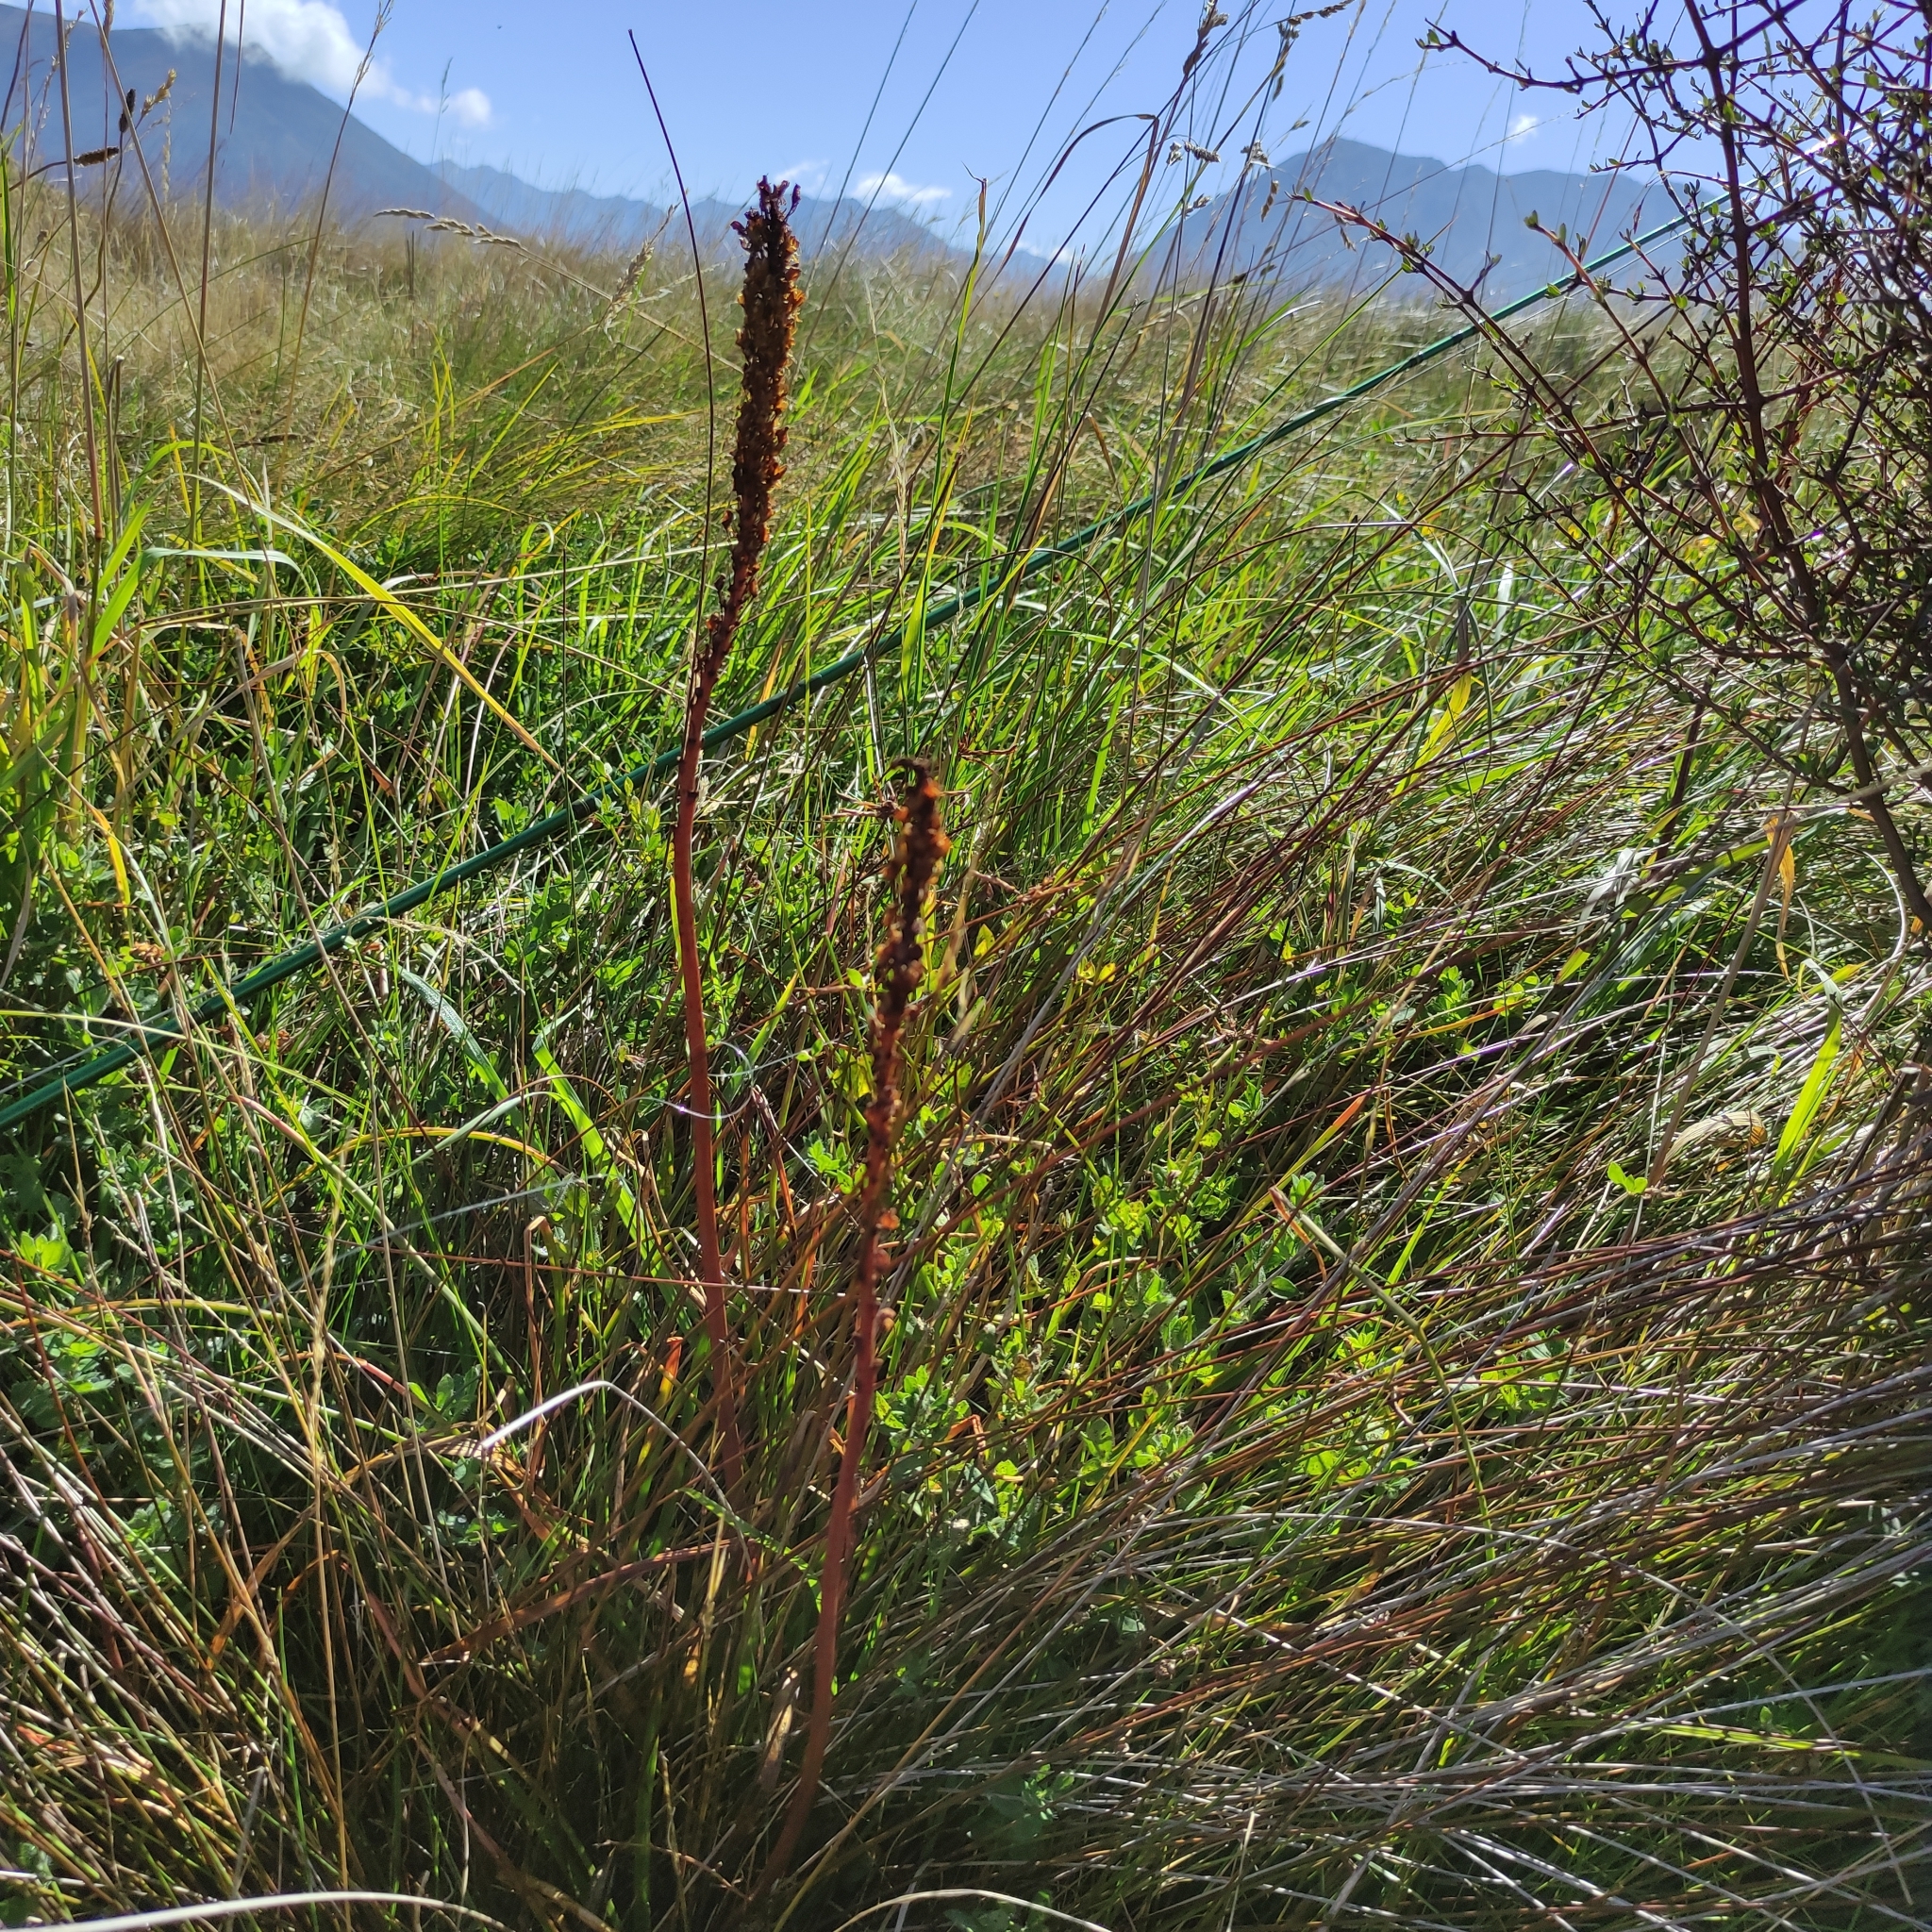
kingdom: Plantae
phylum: Tracheophyta
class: Liliopsida
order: Asparagales
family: Asphodelaceae
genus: Bulbinella
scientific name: Bulbinella angustifolia
